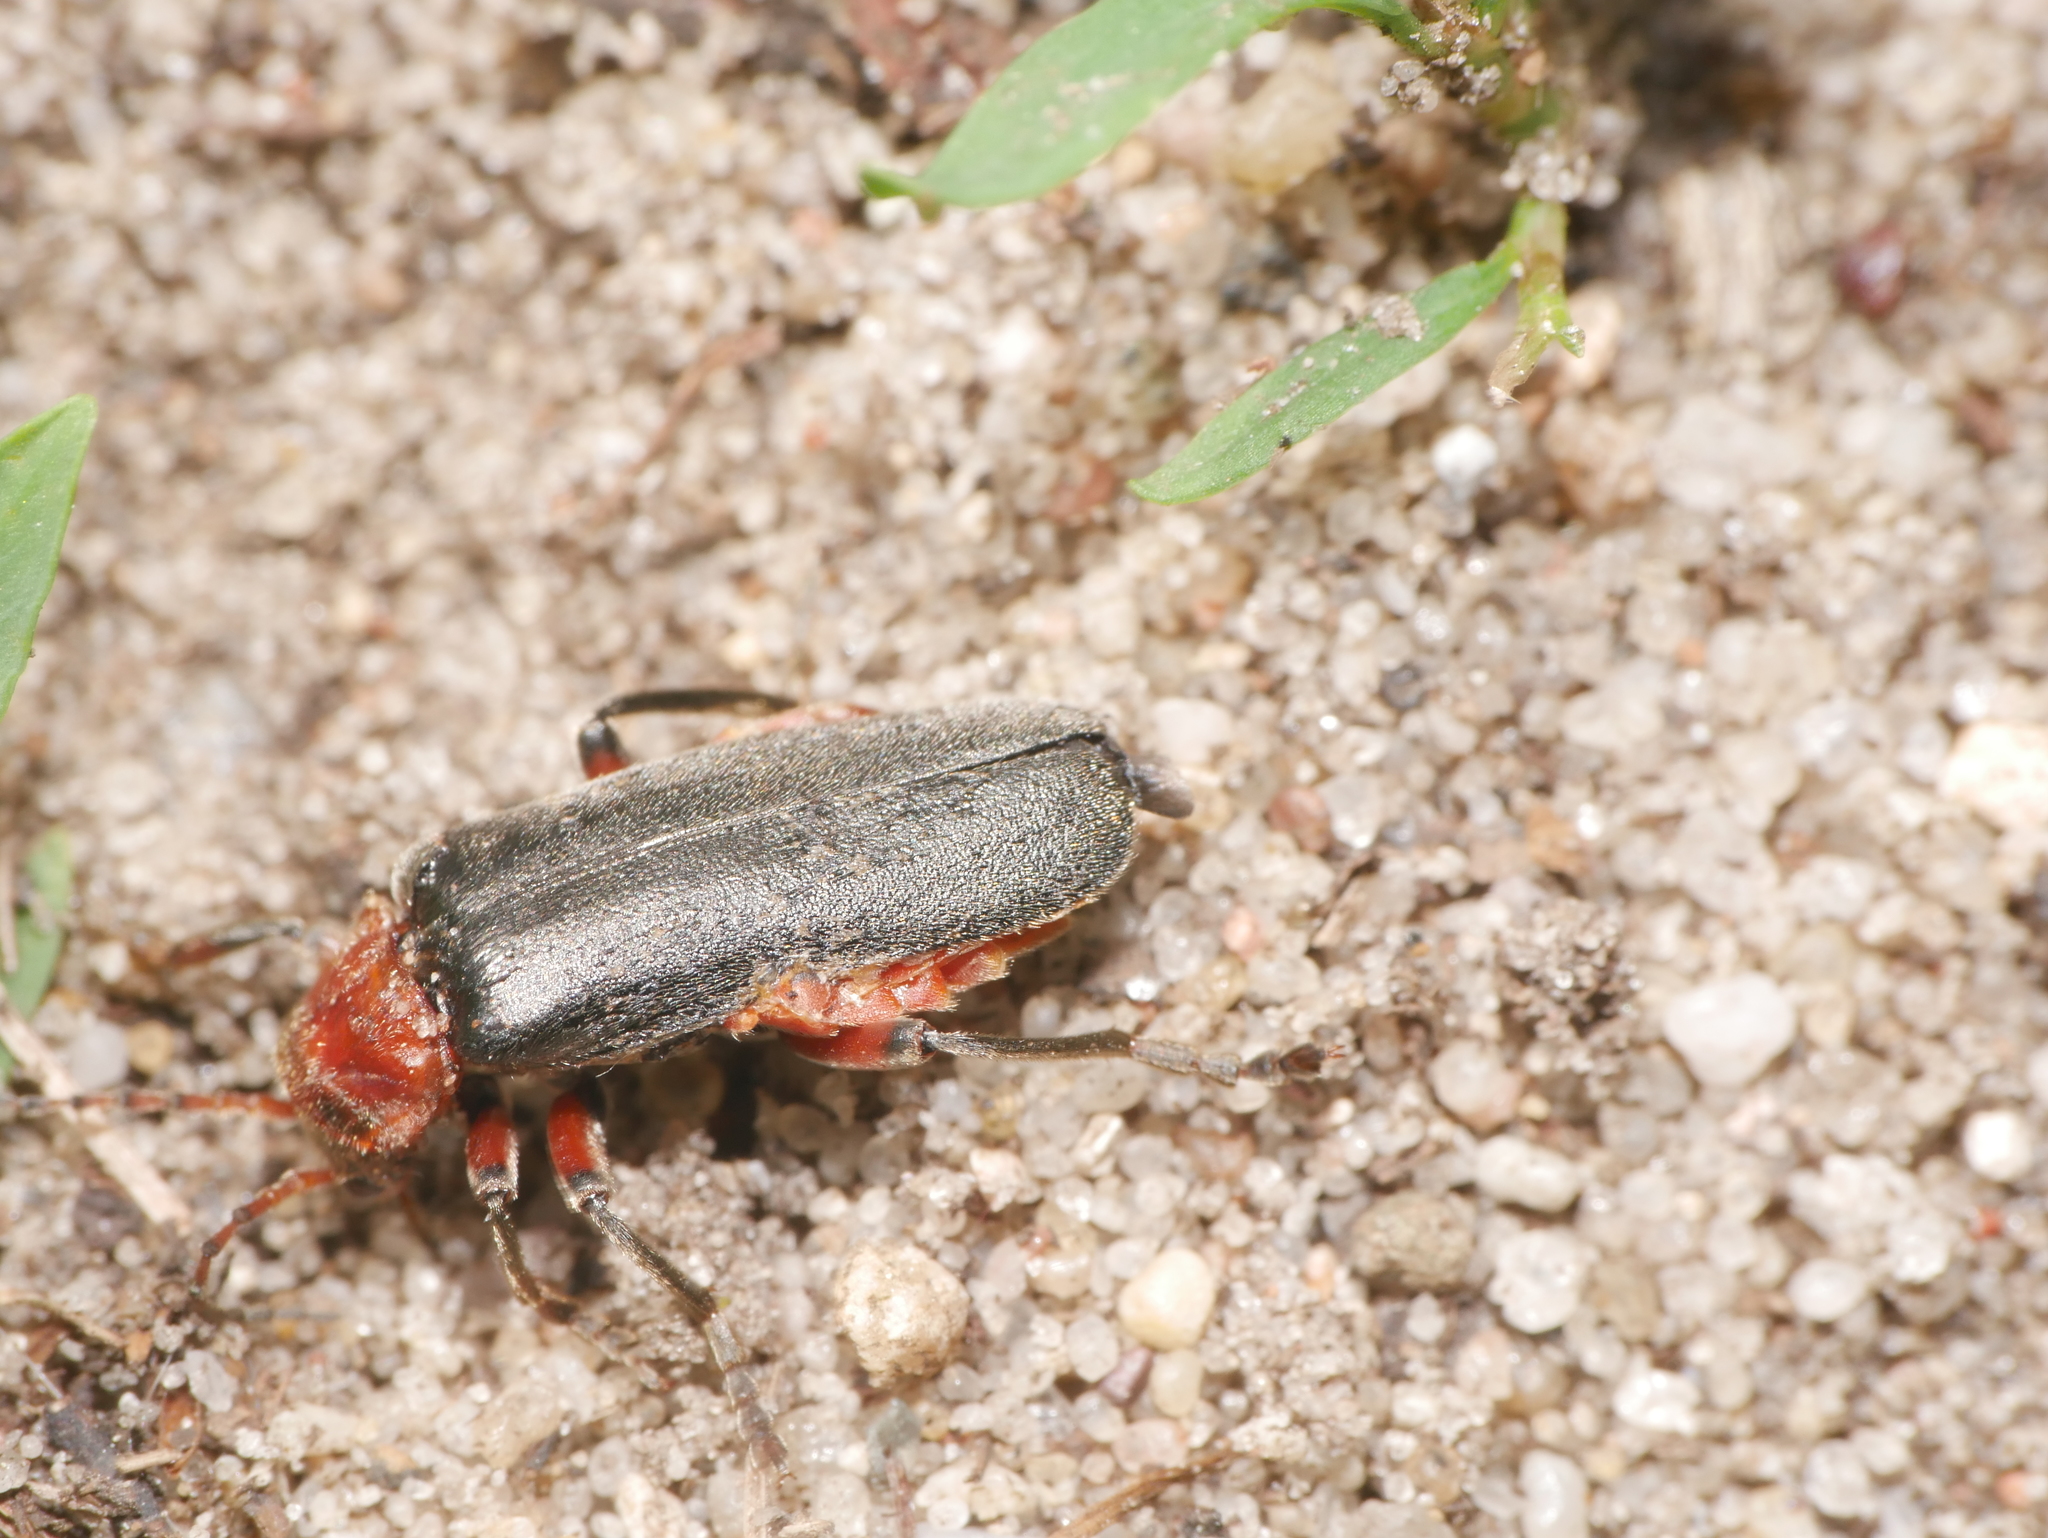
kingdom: Animalia
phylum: Arthropoda
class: Insecta
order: Coleoptera
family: Cantharidae
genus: Cantharis
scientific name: Cantharis rustica
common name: Soldier beetle
